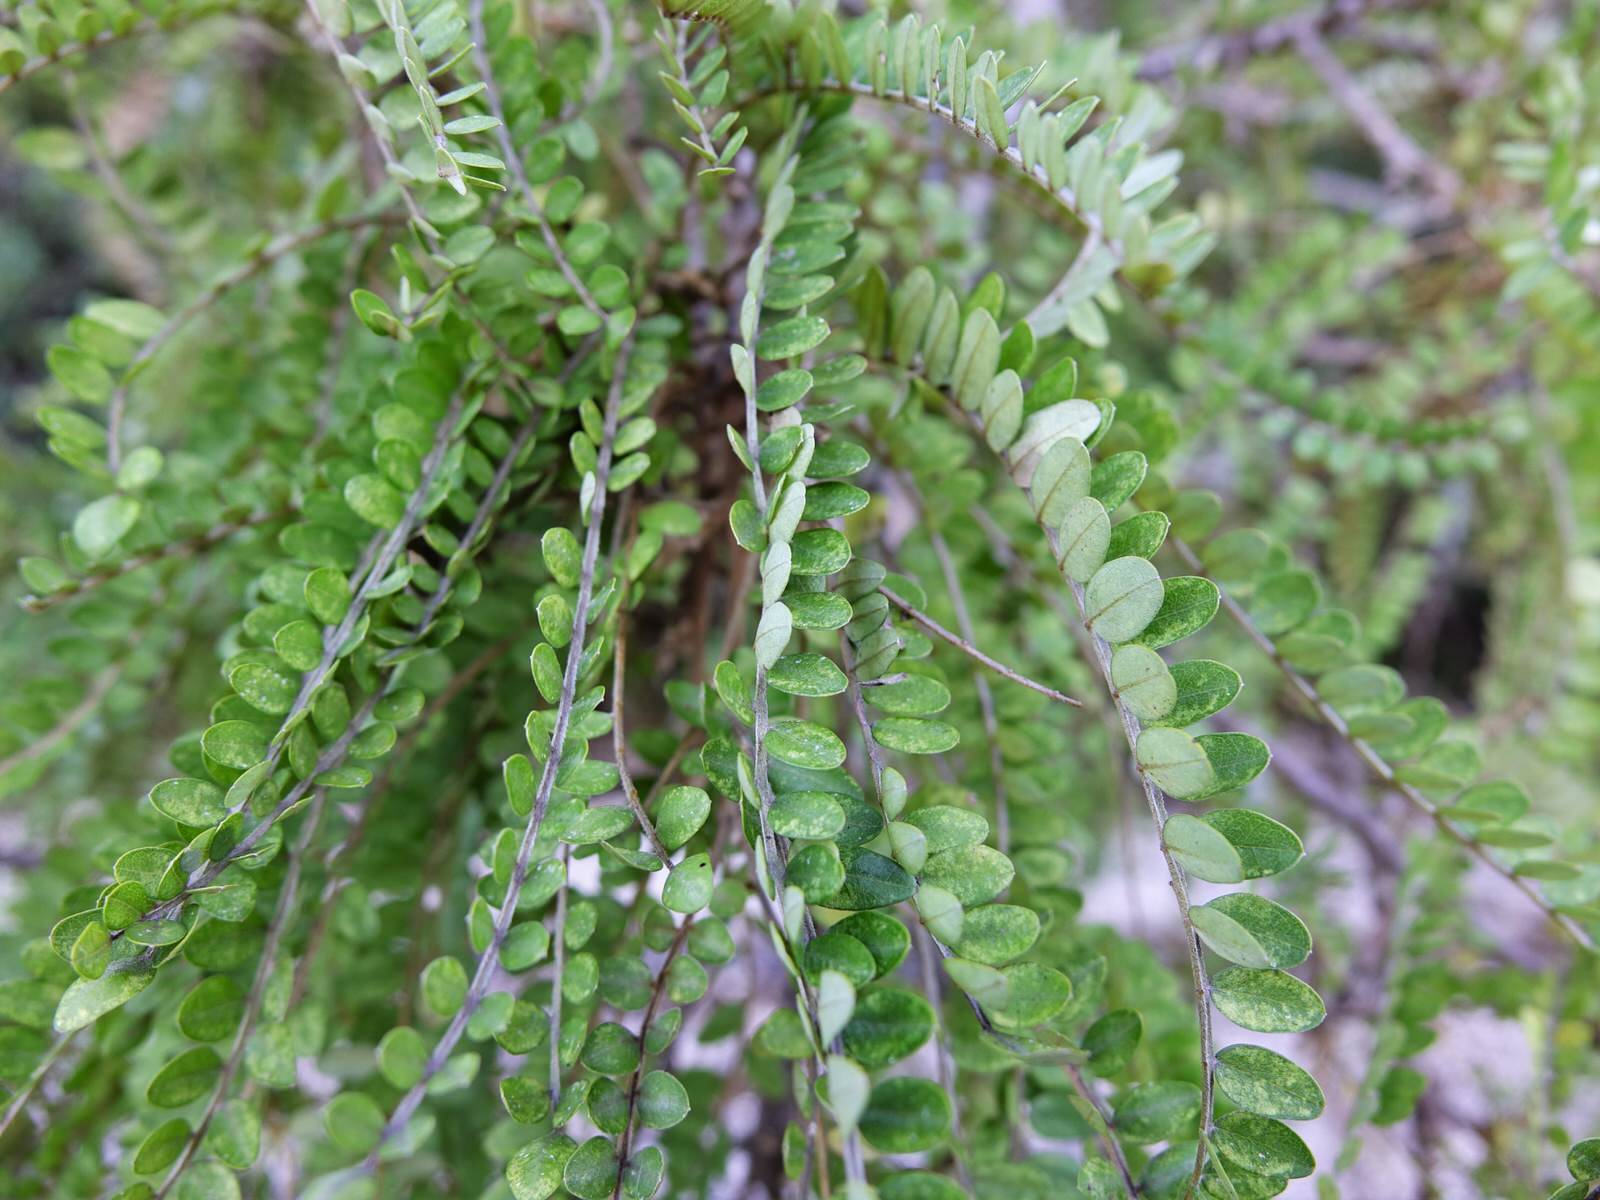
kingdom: Plantae
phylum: Tracheophyta
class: Magnoliopsida
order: Fabales
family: Fabaceae
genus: Sophora
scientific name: Sophora chathamica
